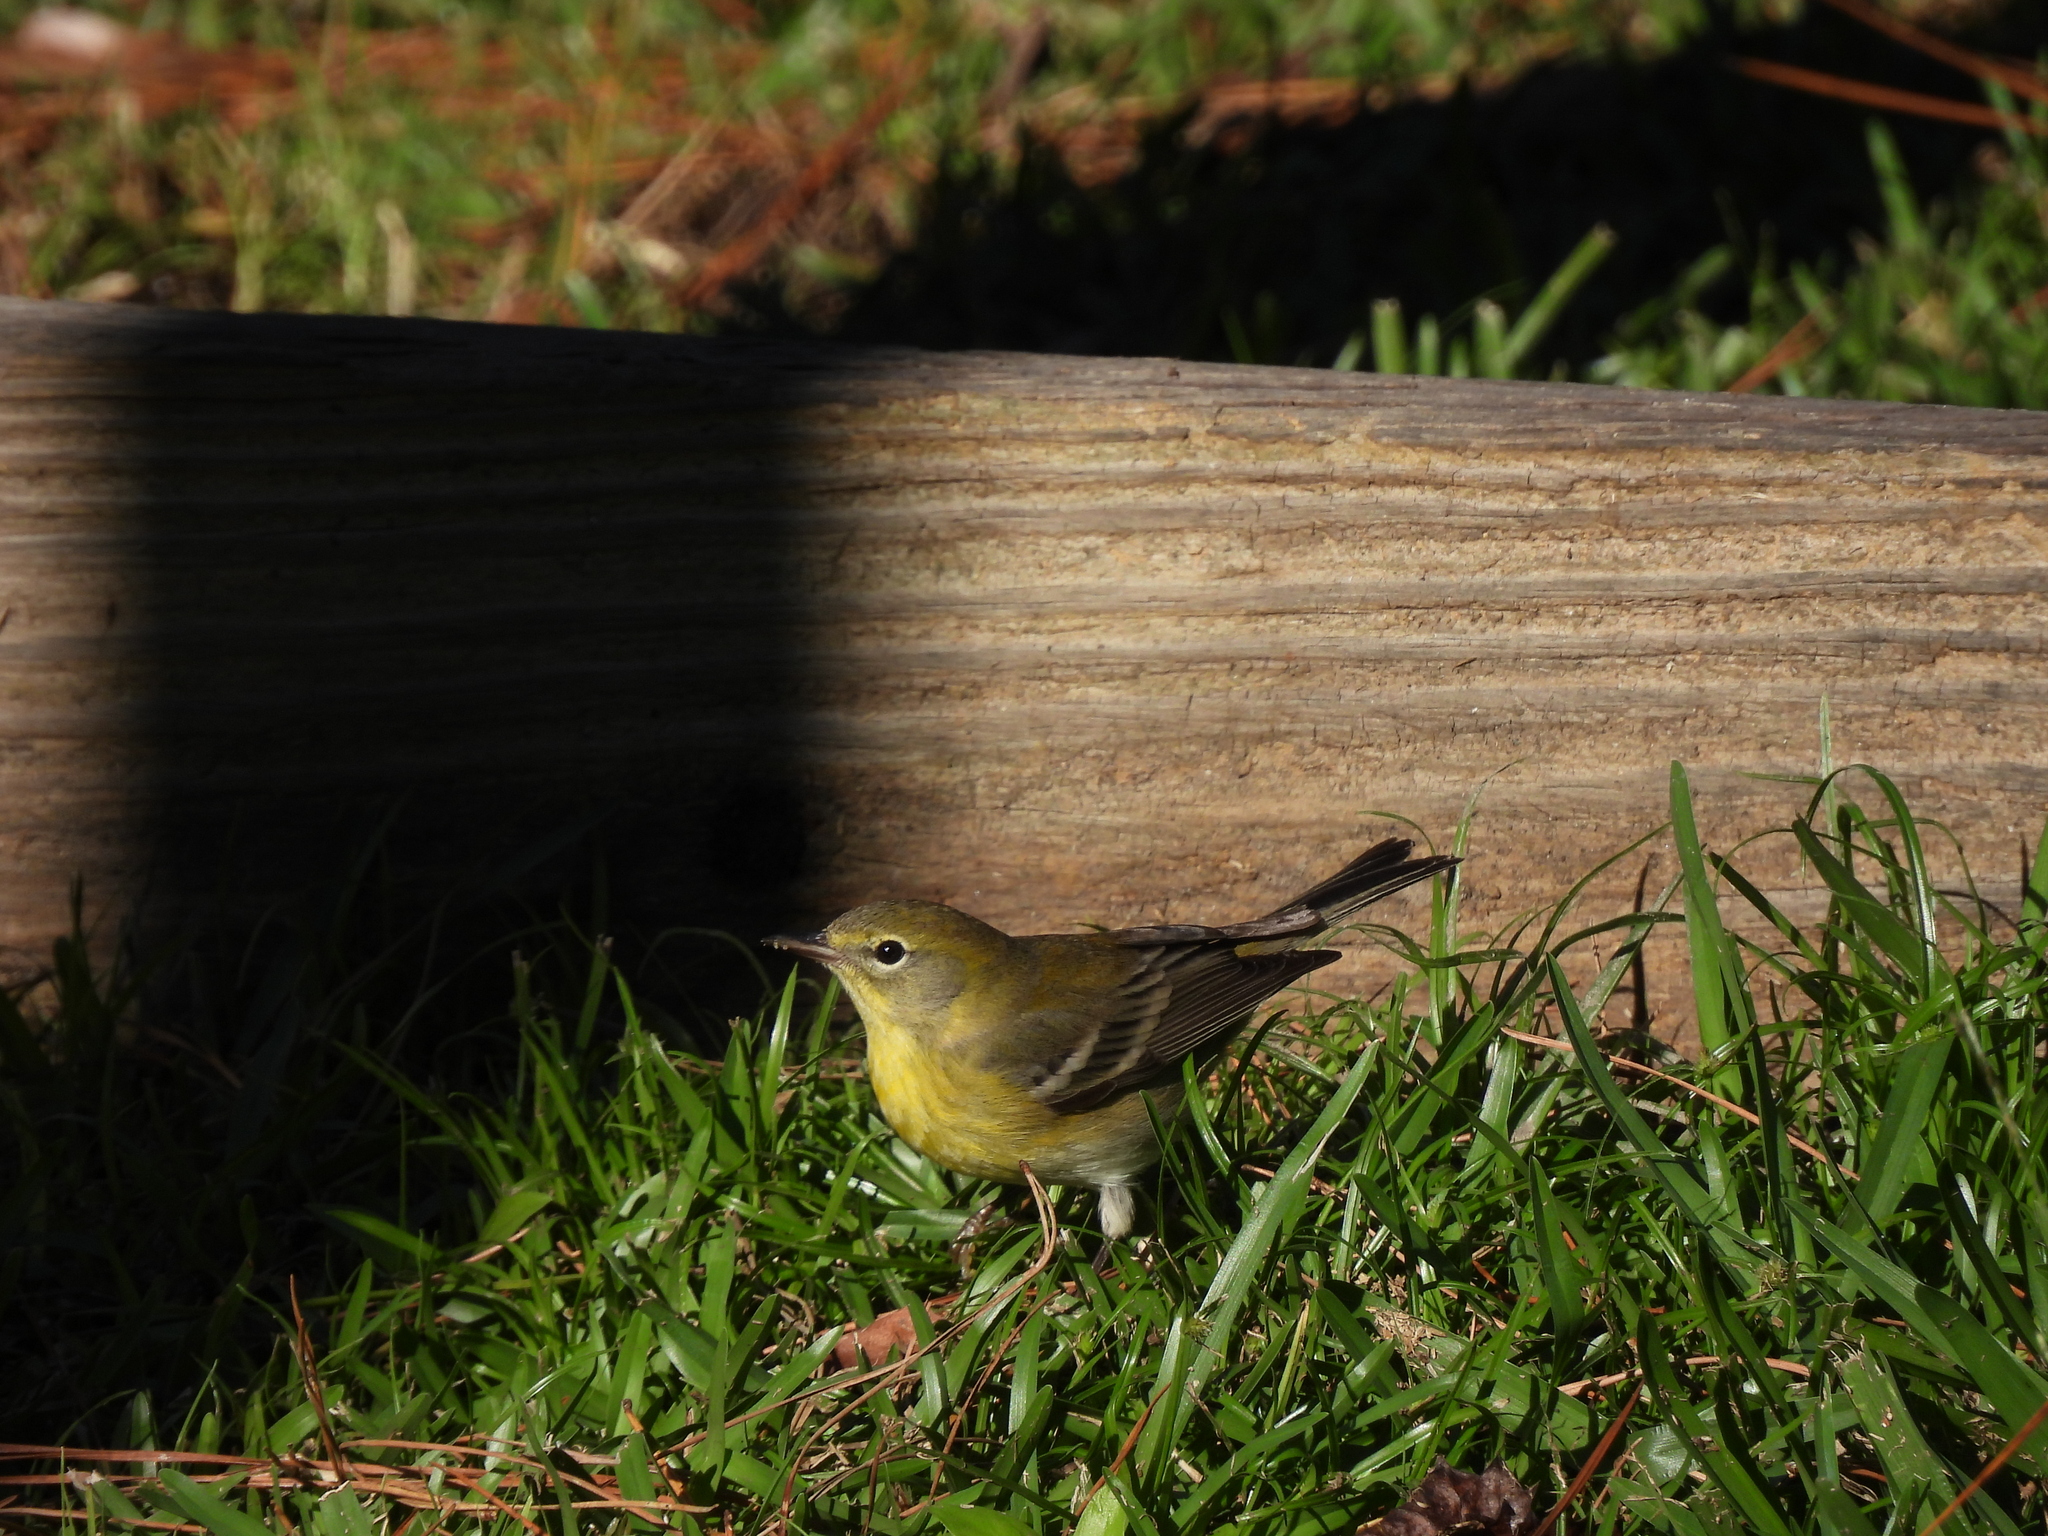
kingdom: Animalia
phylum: Chordata
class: Aves
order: Passeriformes
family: Parulidae
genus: Setophaga
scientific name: Setophaga pinus
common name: Pine warbler
